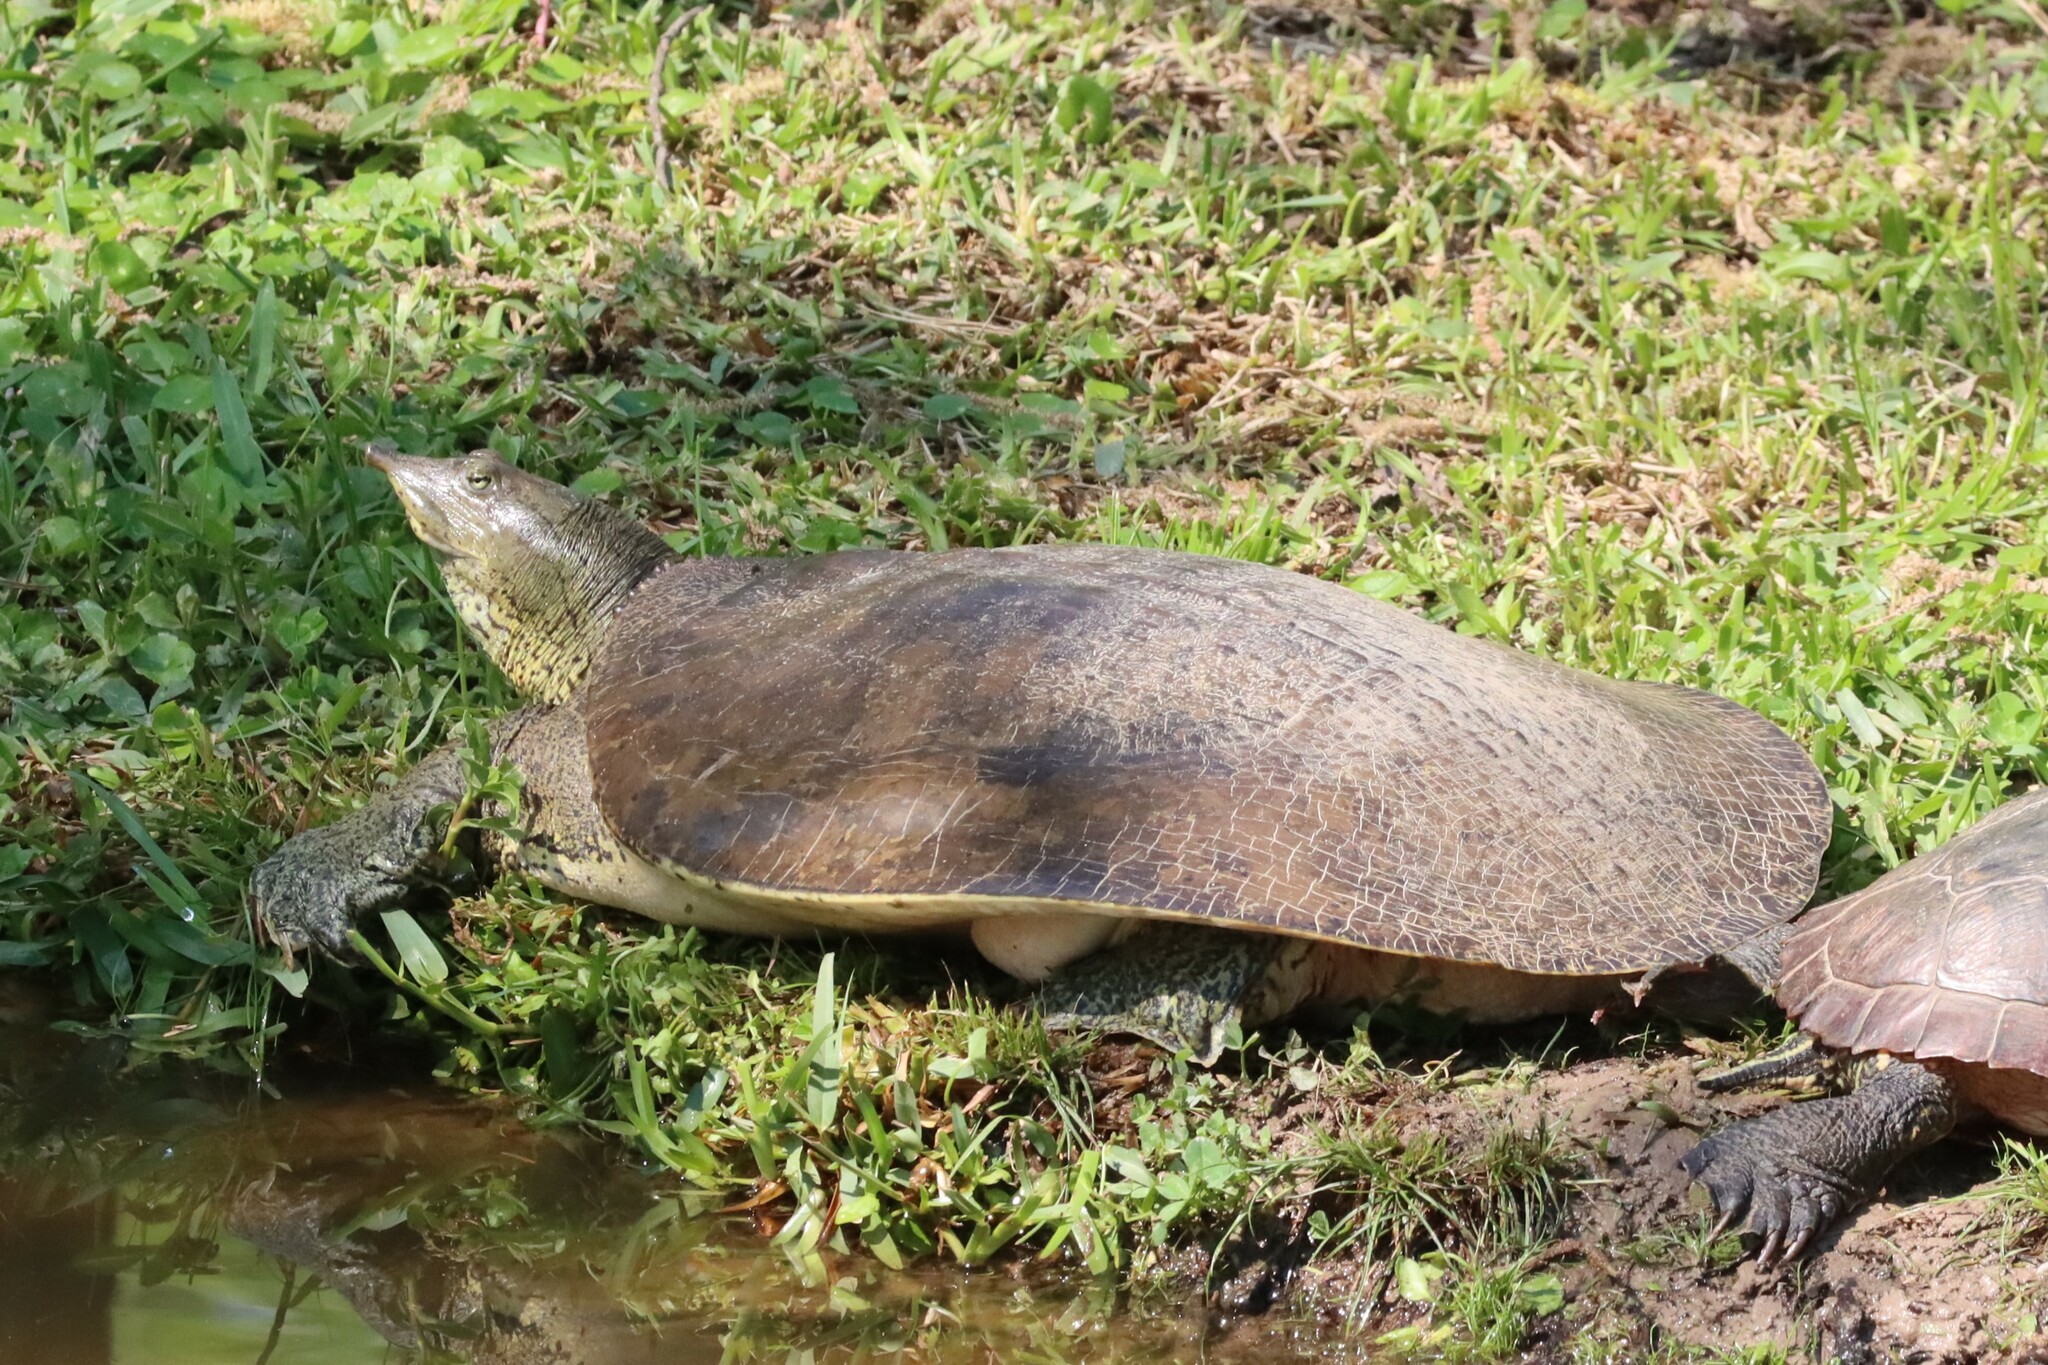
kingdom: Animalia
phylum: Chordata
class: Testudines
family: Trionychidae
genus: Apalone
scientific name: Apalone spinifera
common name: Spiny softshell turtle
